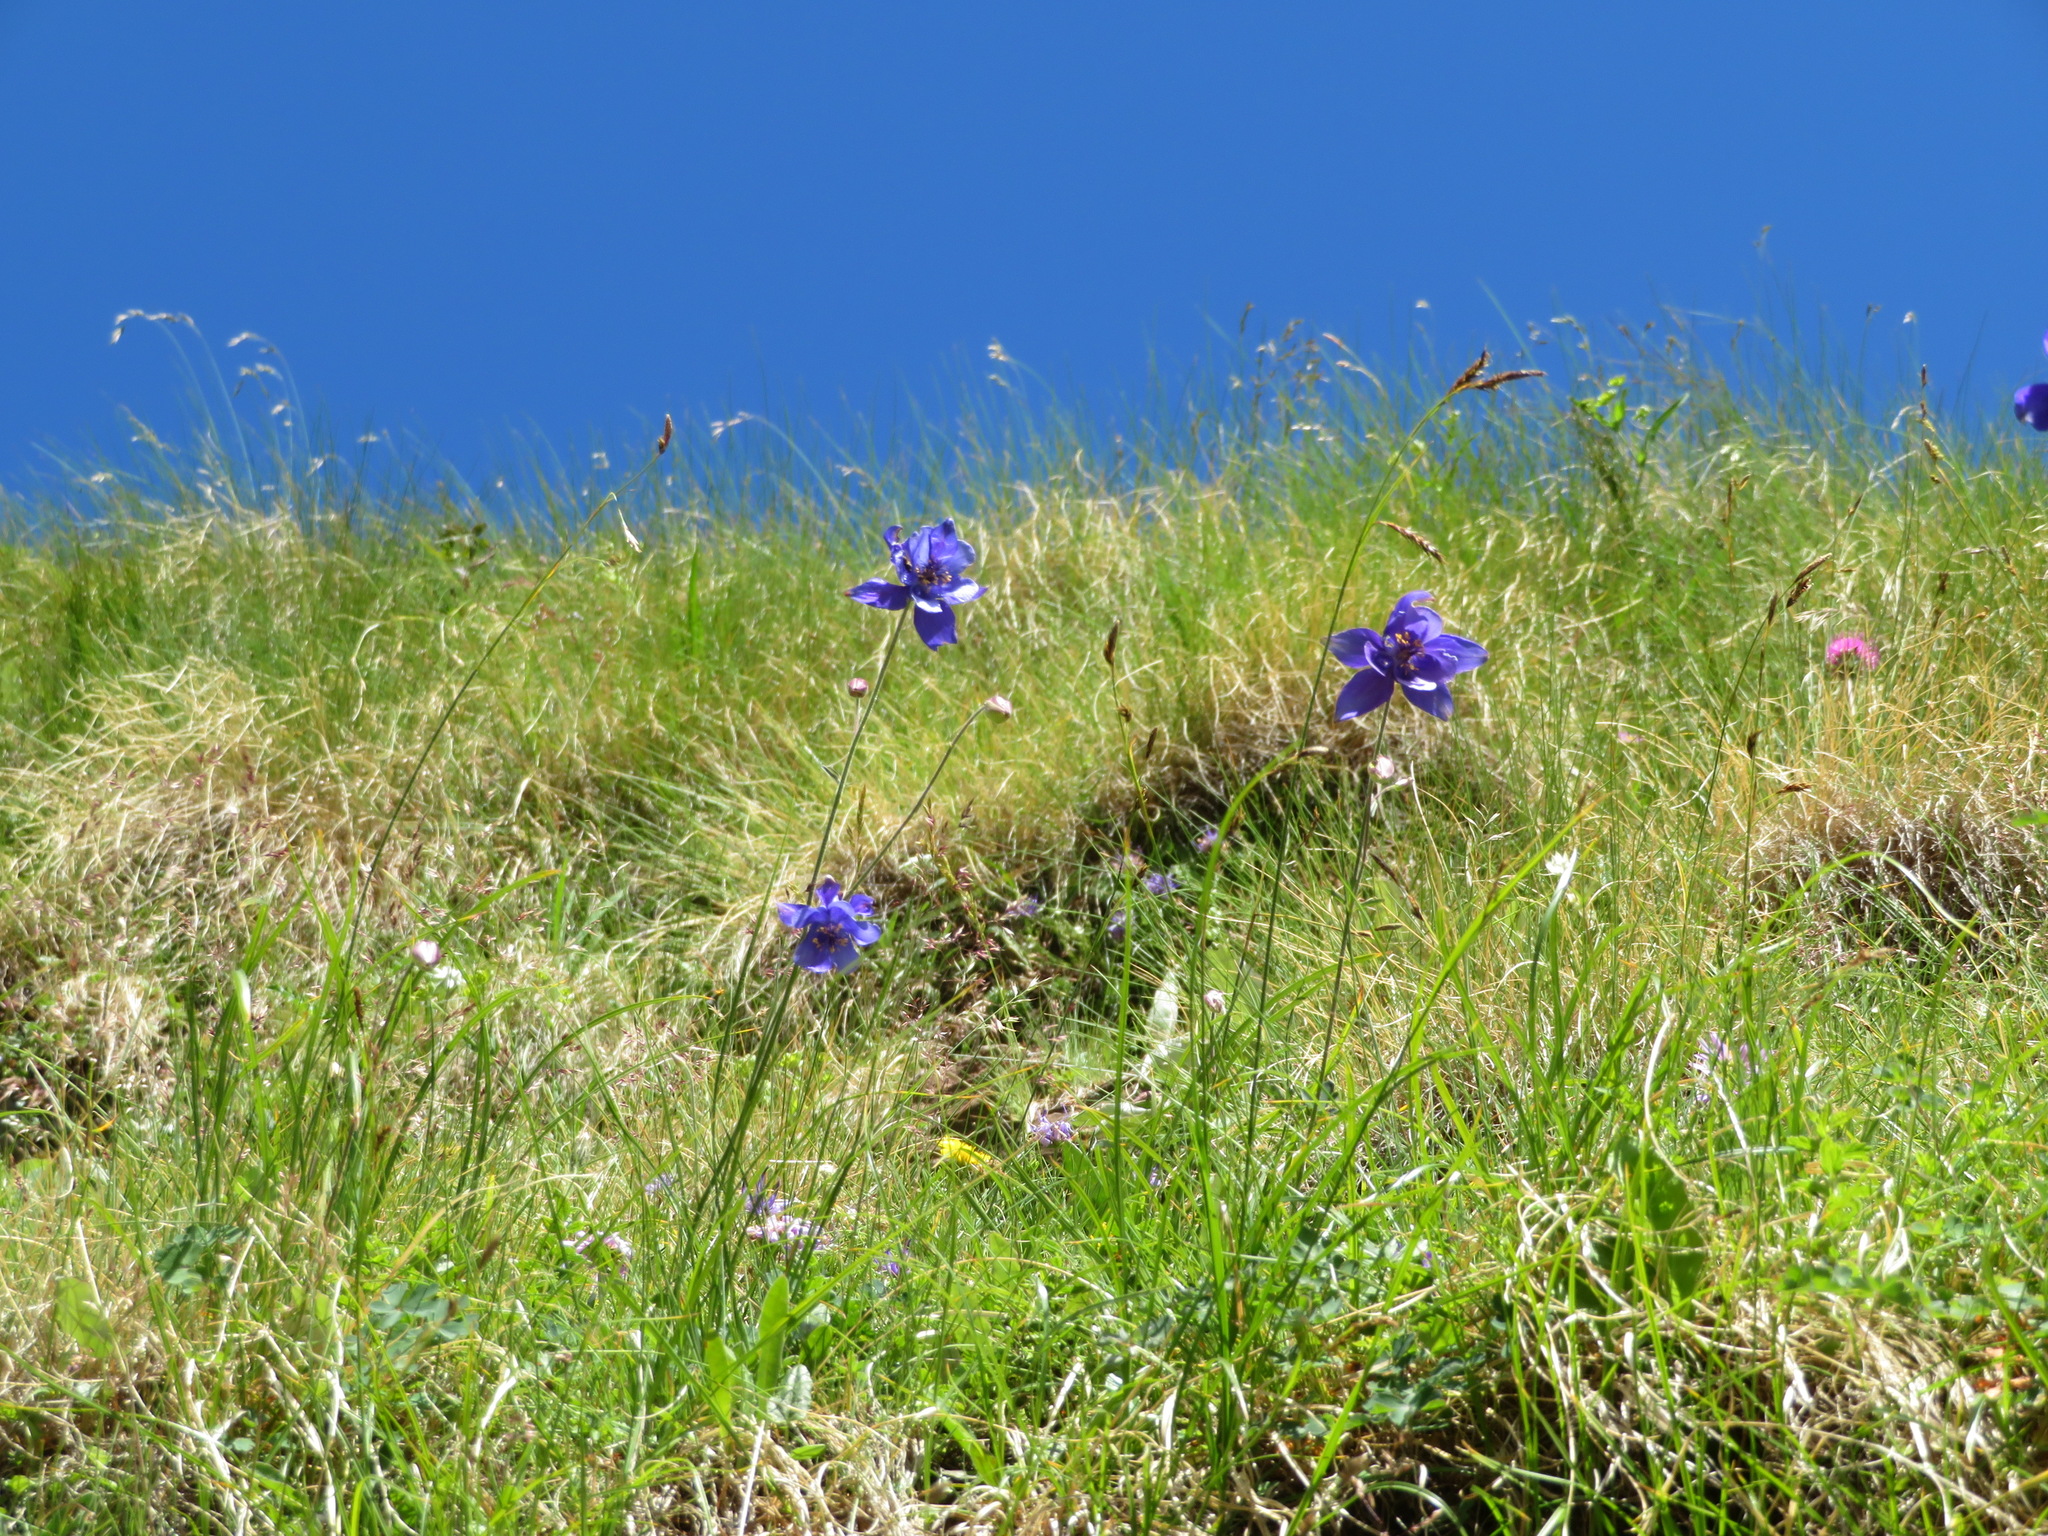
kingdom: Plantae
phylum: Tracheophyta
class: Magnoliopsida
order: Ranunculales
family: Ranunculaceae
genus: Aquilegia
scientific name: Aquilegia einseleana
